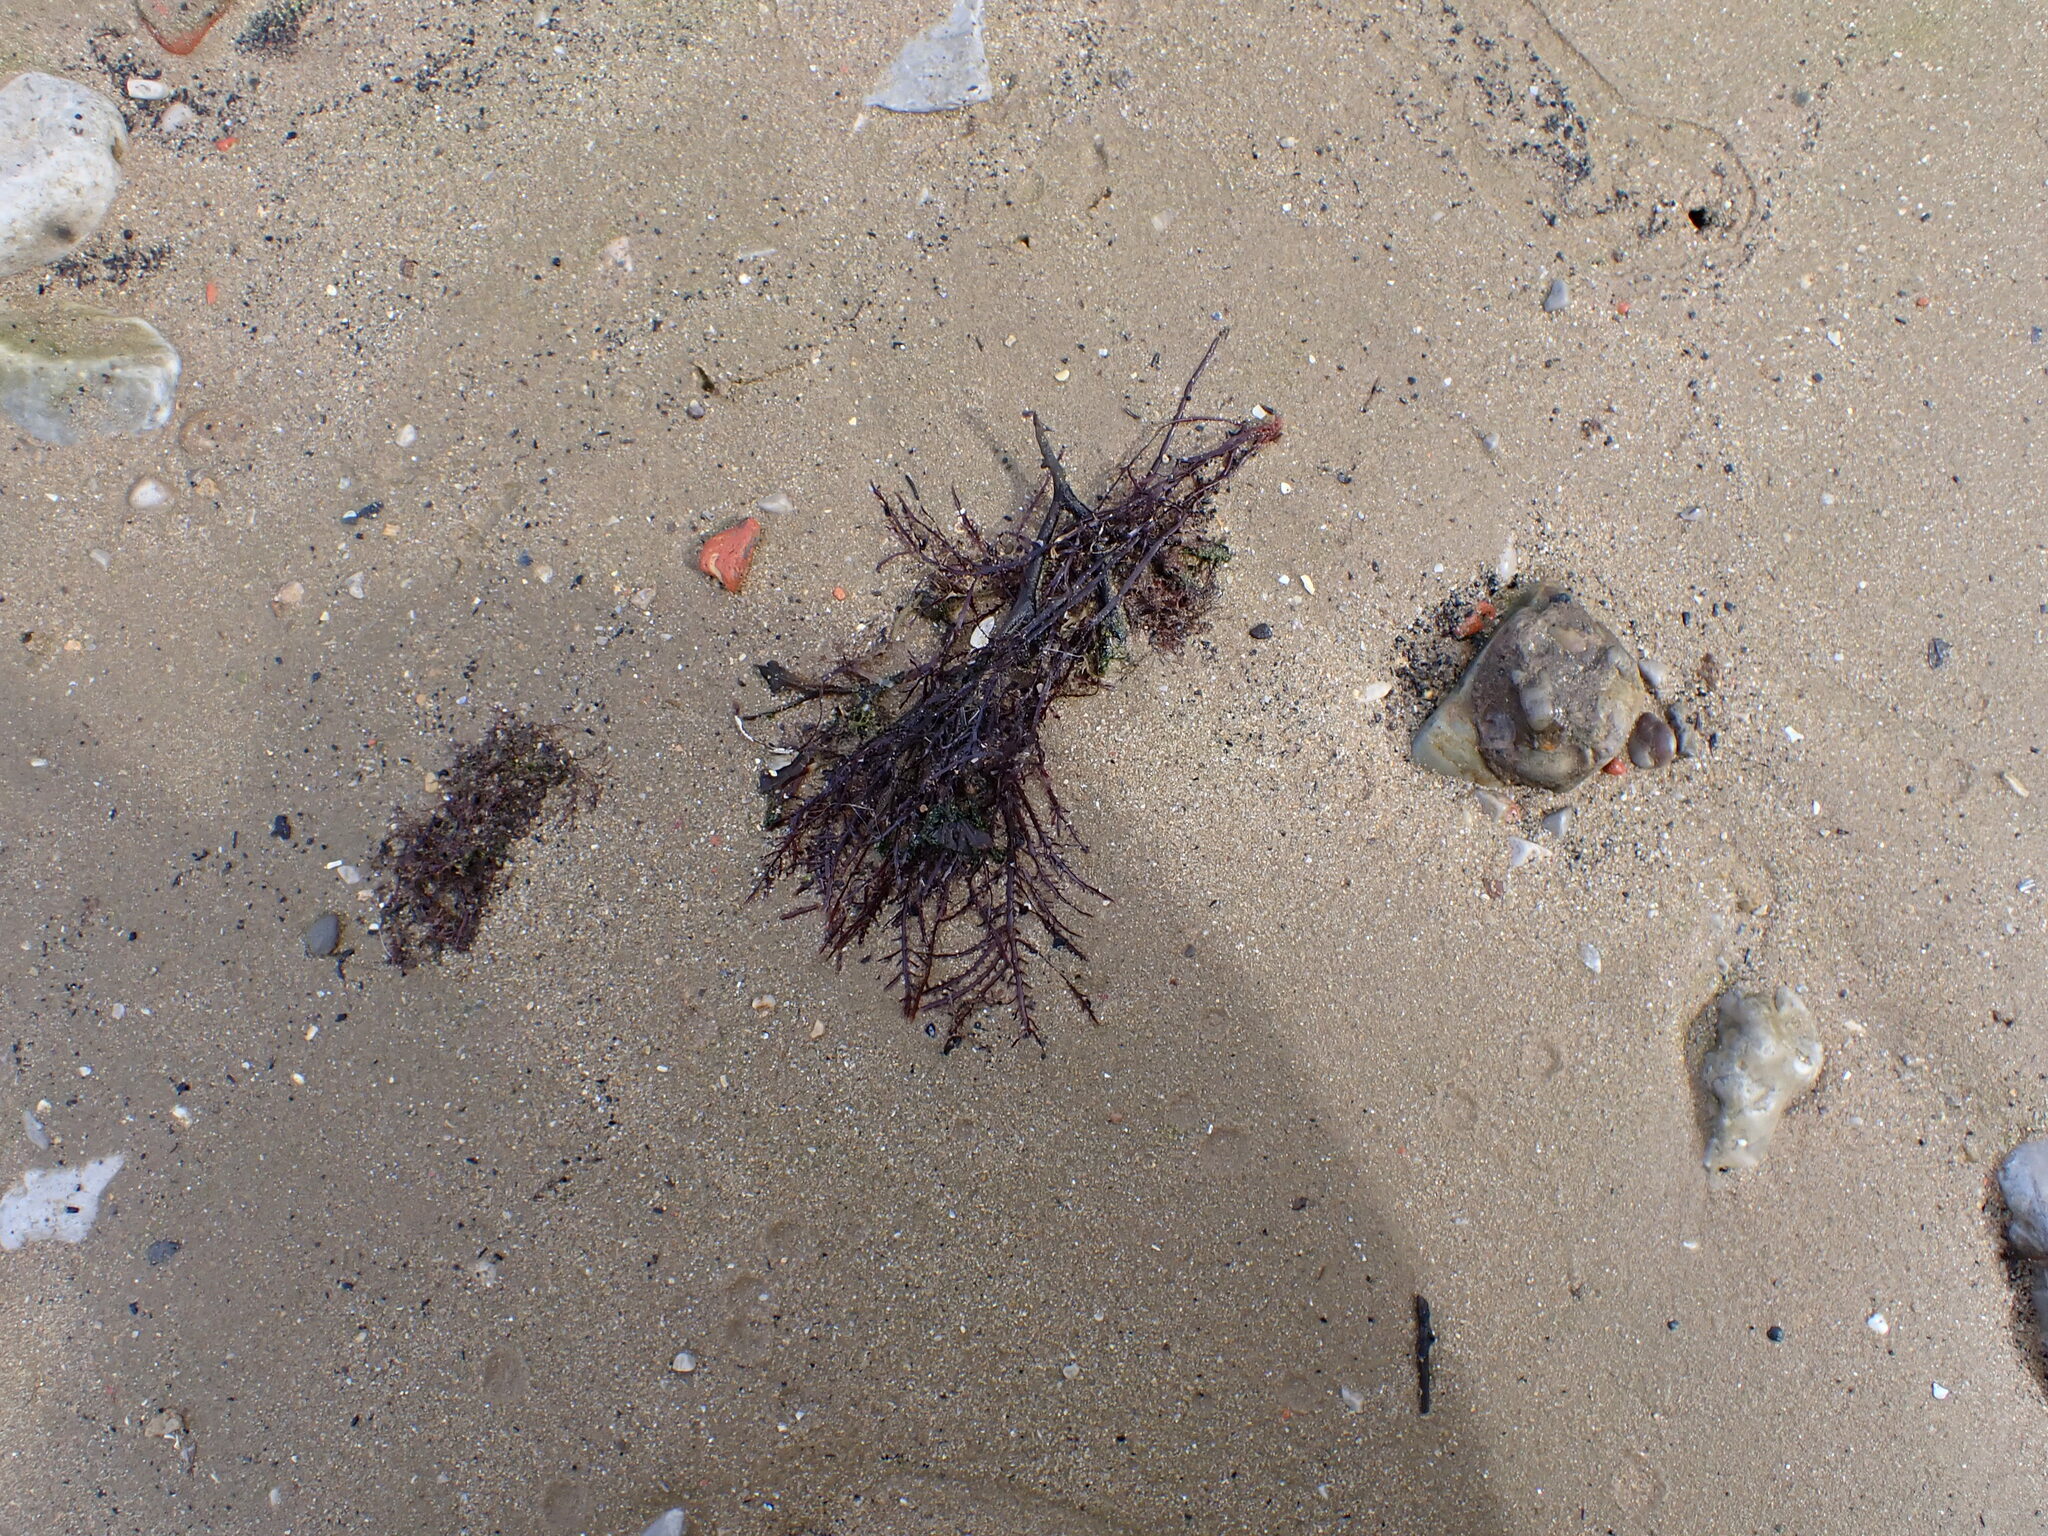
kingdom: Plantae
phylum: Rhodophyta
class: Florideophyceae
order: Gelidiales
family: Gelidiaceae
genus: Gelidium
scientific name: Gelidium spinosum
